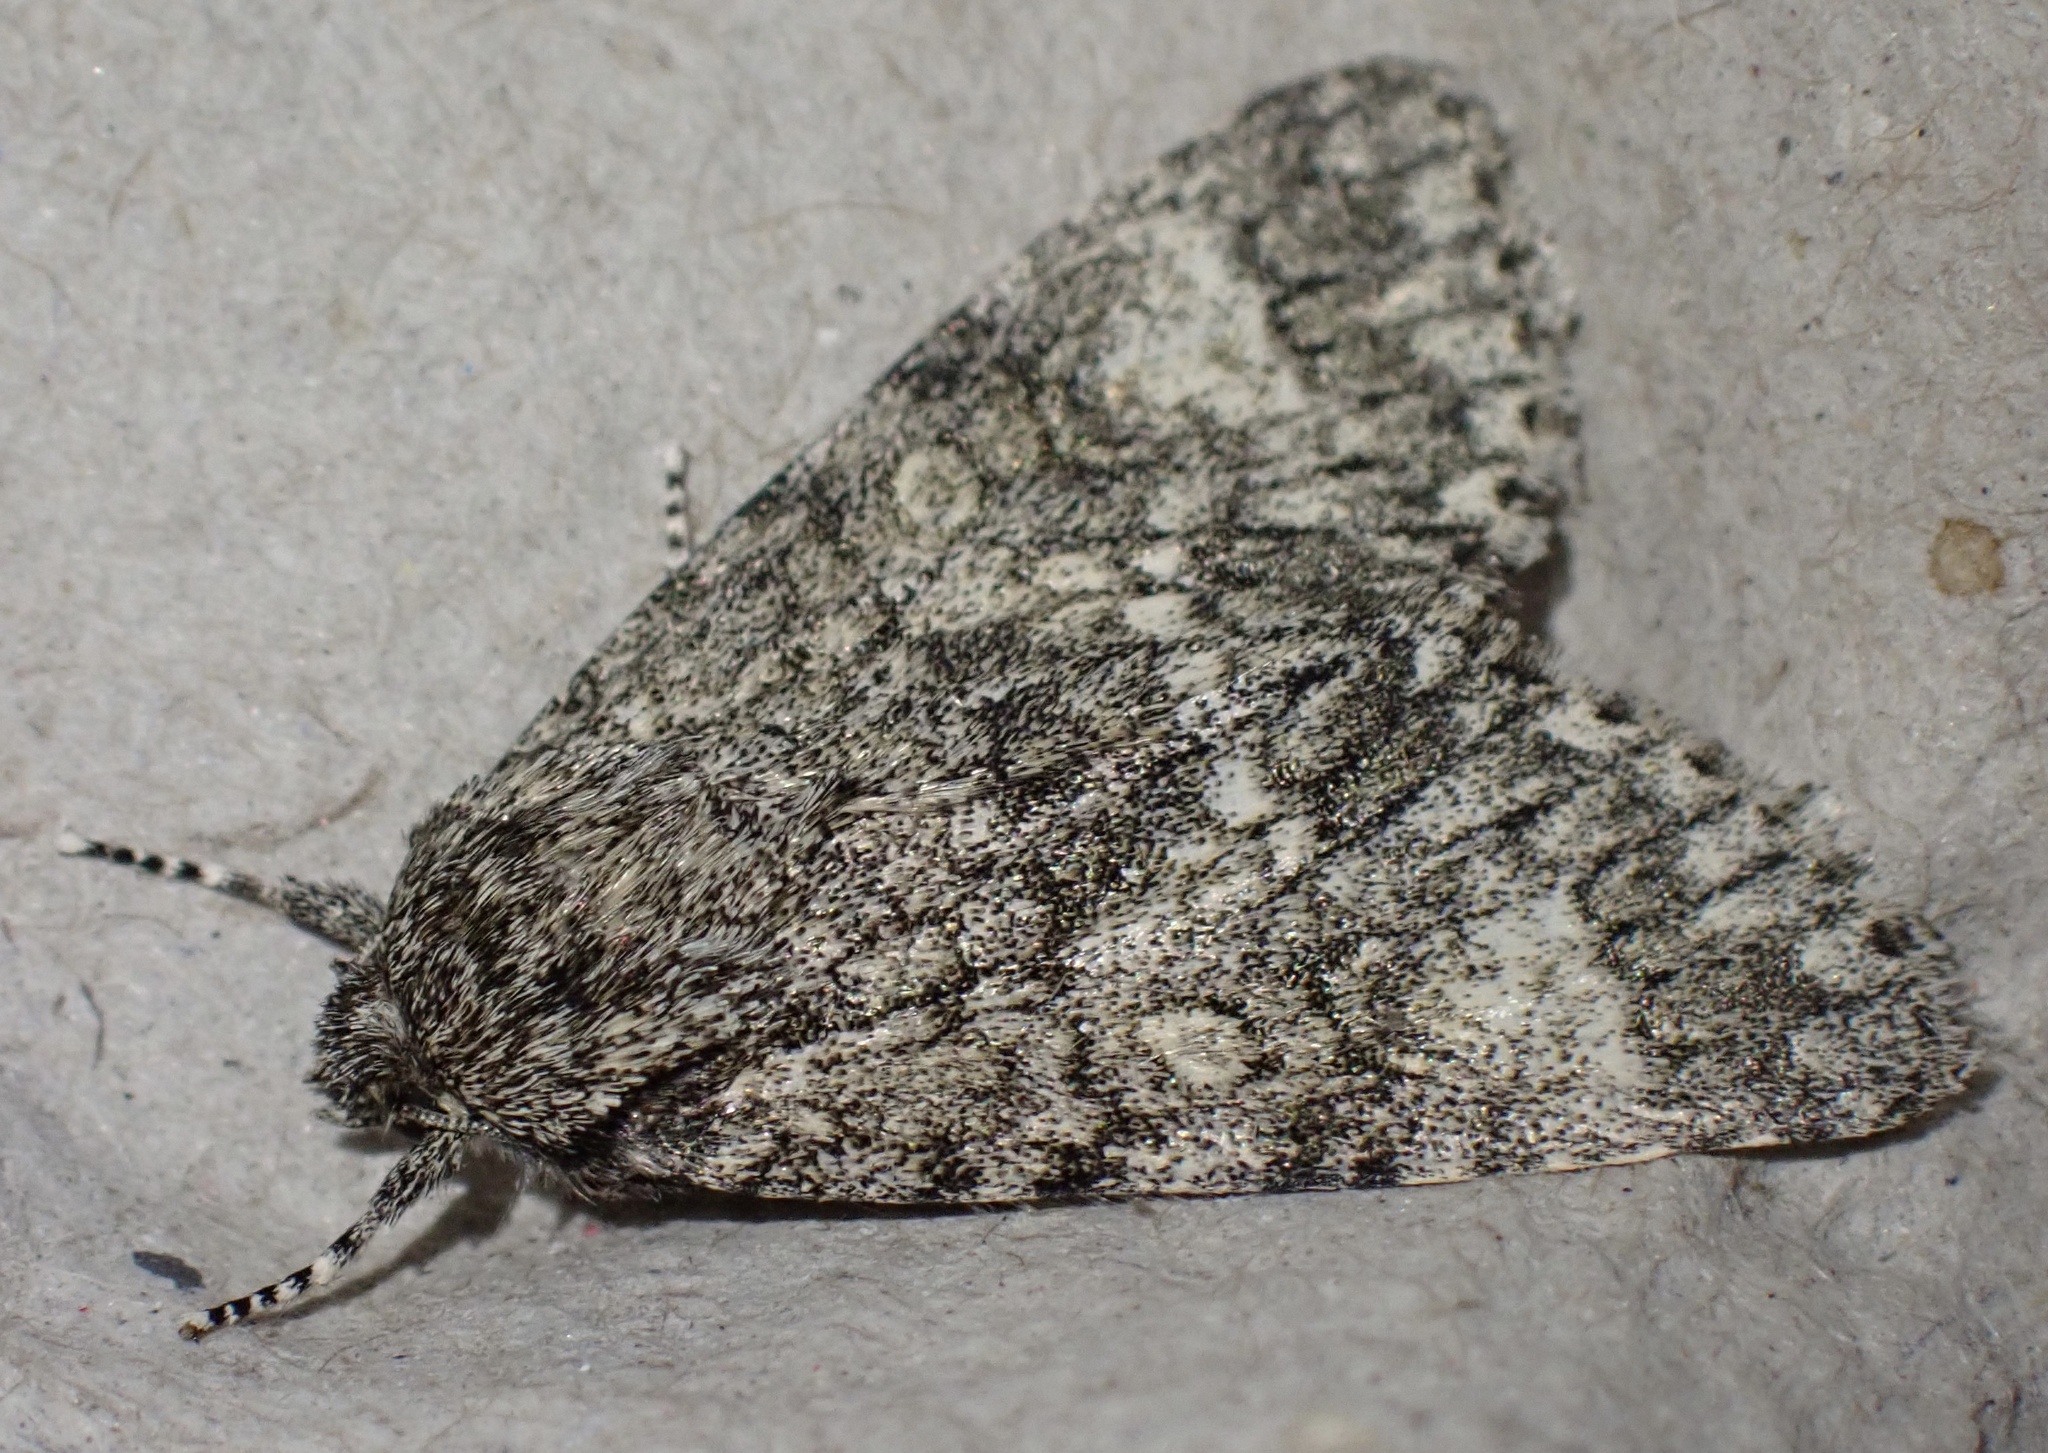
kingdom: Animalia
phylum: Arthropoda
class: Insecta
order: Lepidoptera
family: Noctuidae
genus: Acronicta
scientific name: Acronicta megacephala
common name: Poplar grey
